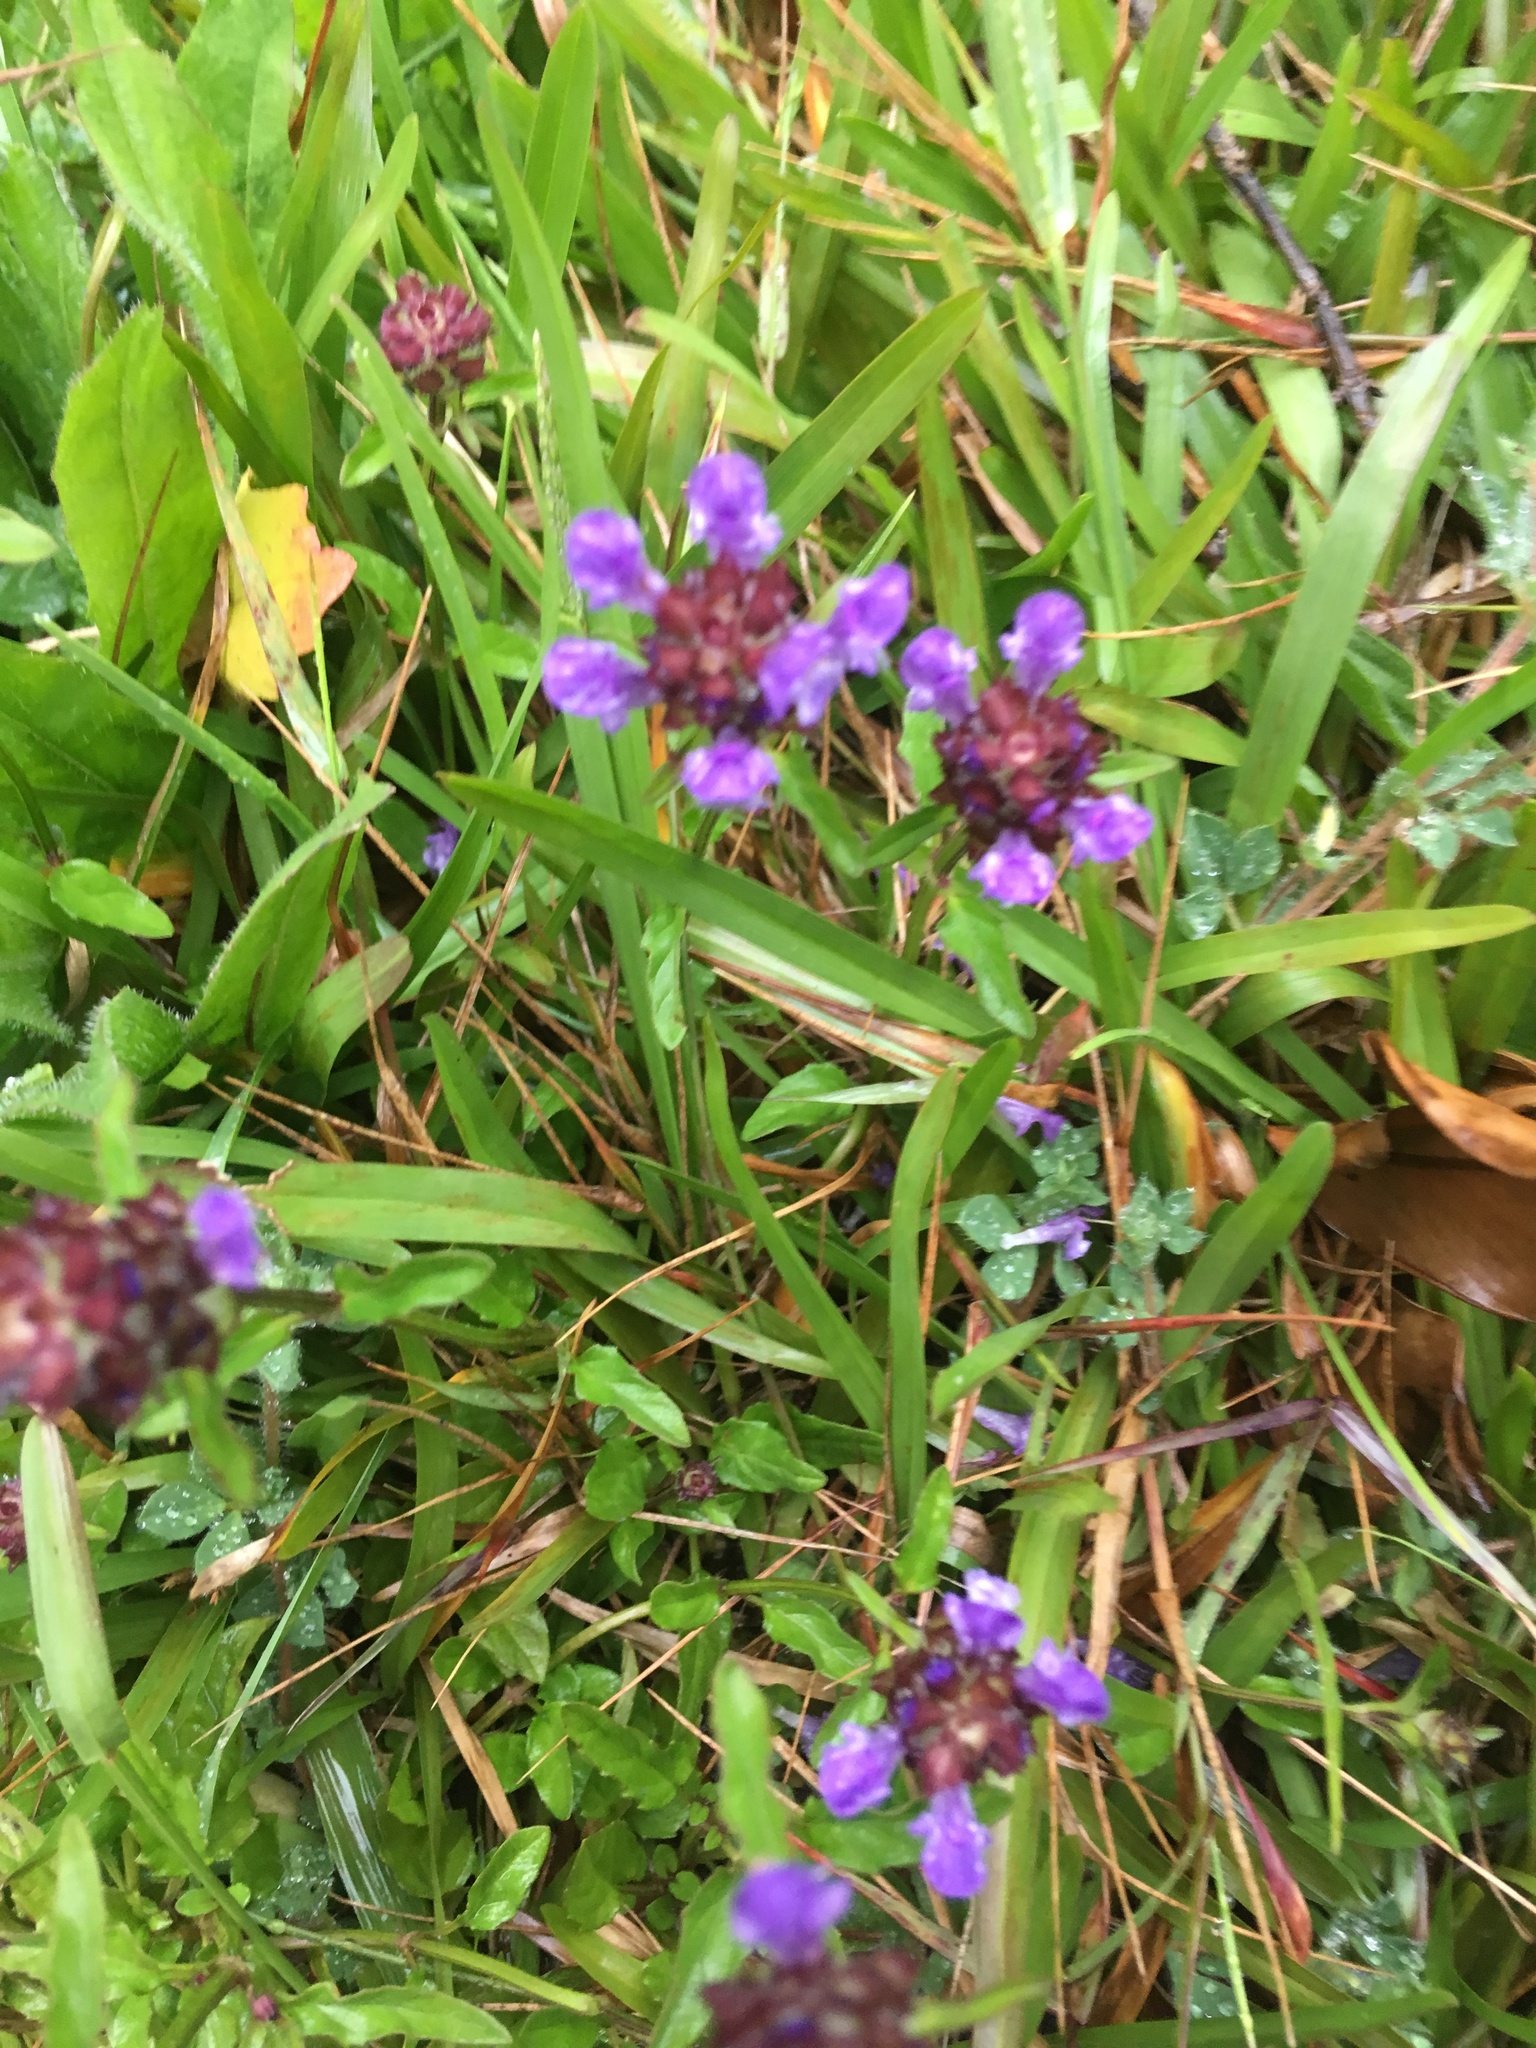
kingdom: Plantae
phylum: Tracheophyta
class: Magnoliopsida
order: Lamiales
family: Lamiaceae
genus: Prunella
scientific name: Prunella vulgaris
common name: Heal-all
